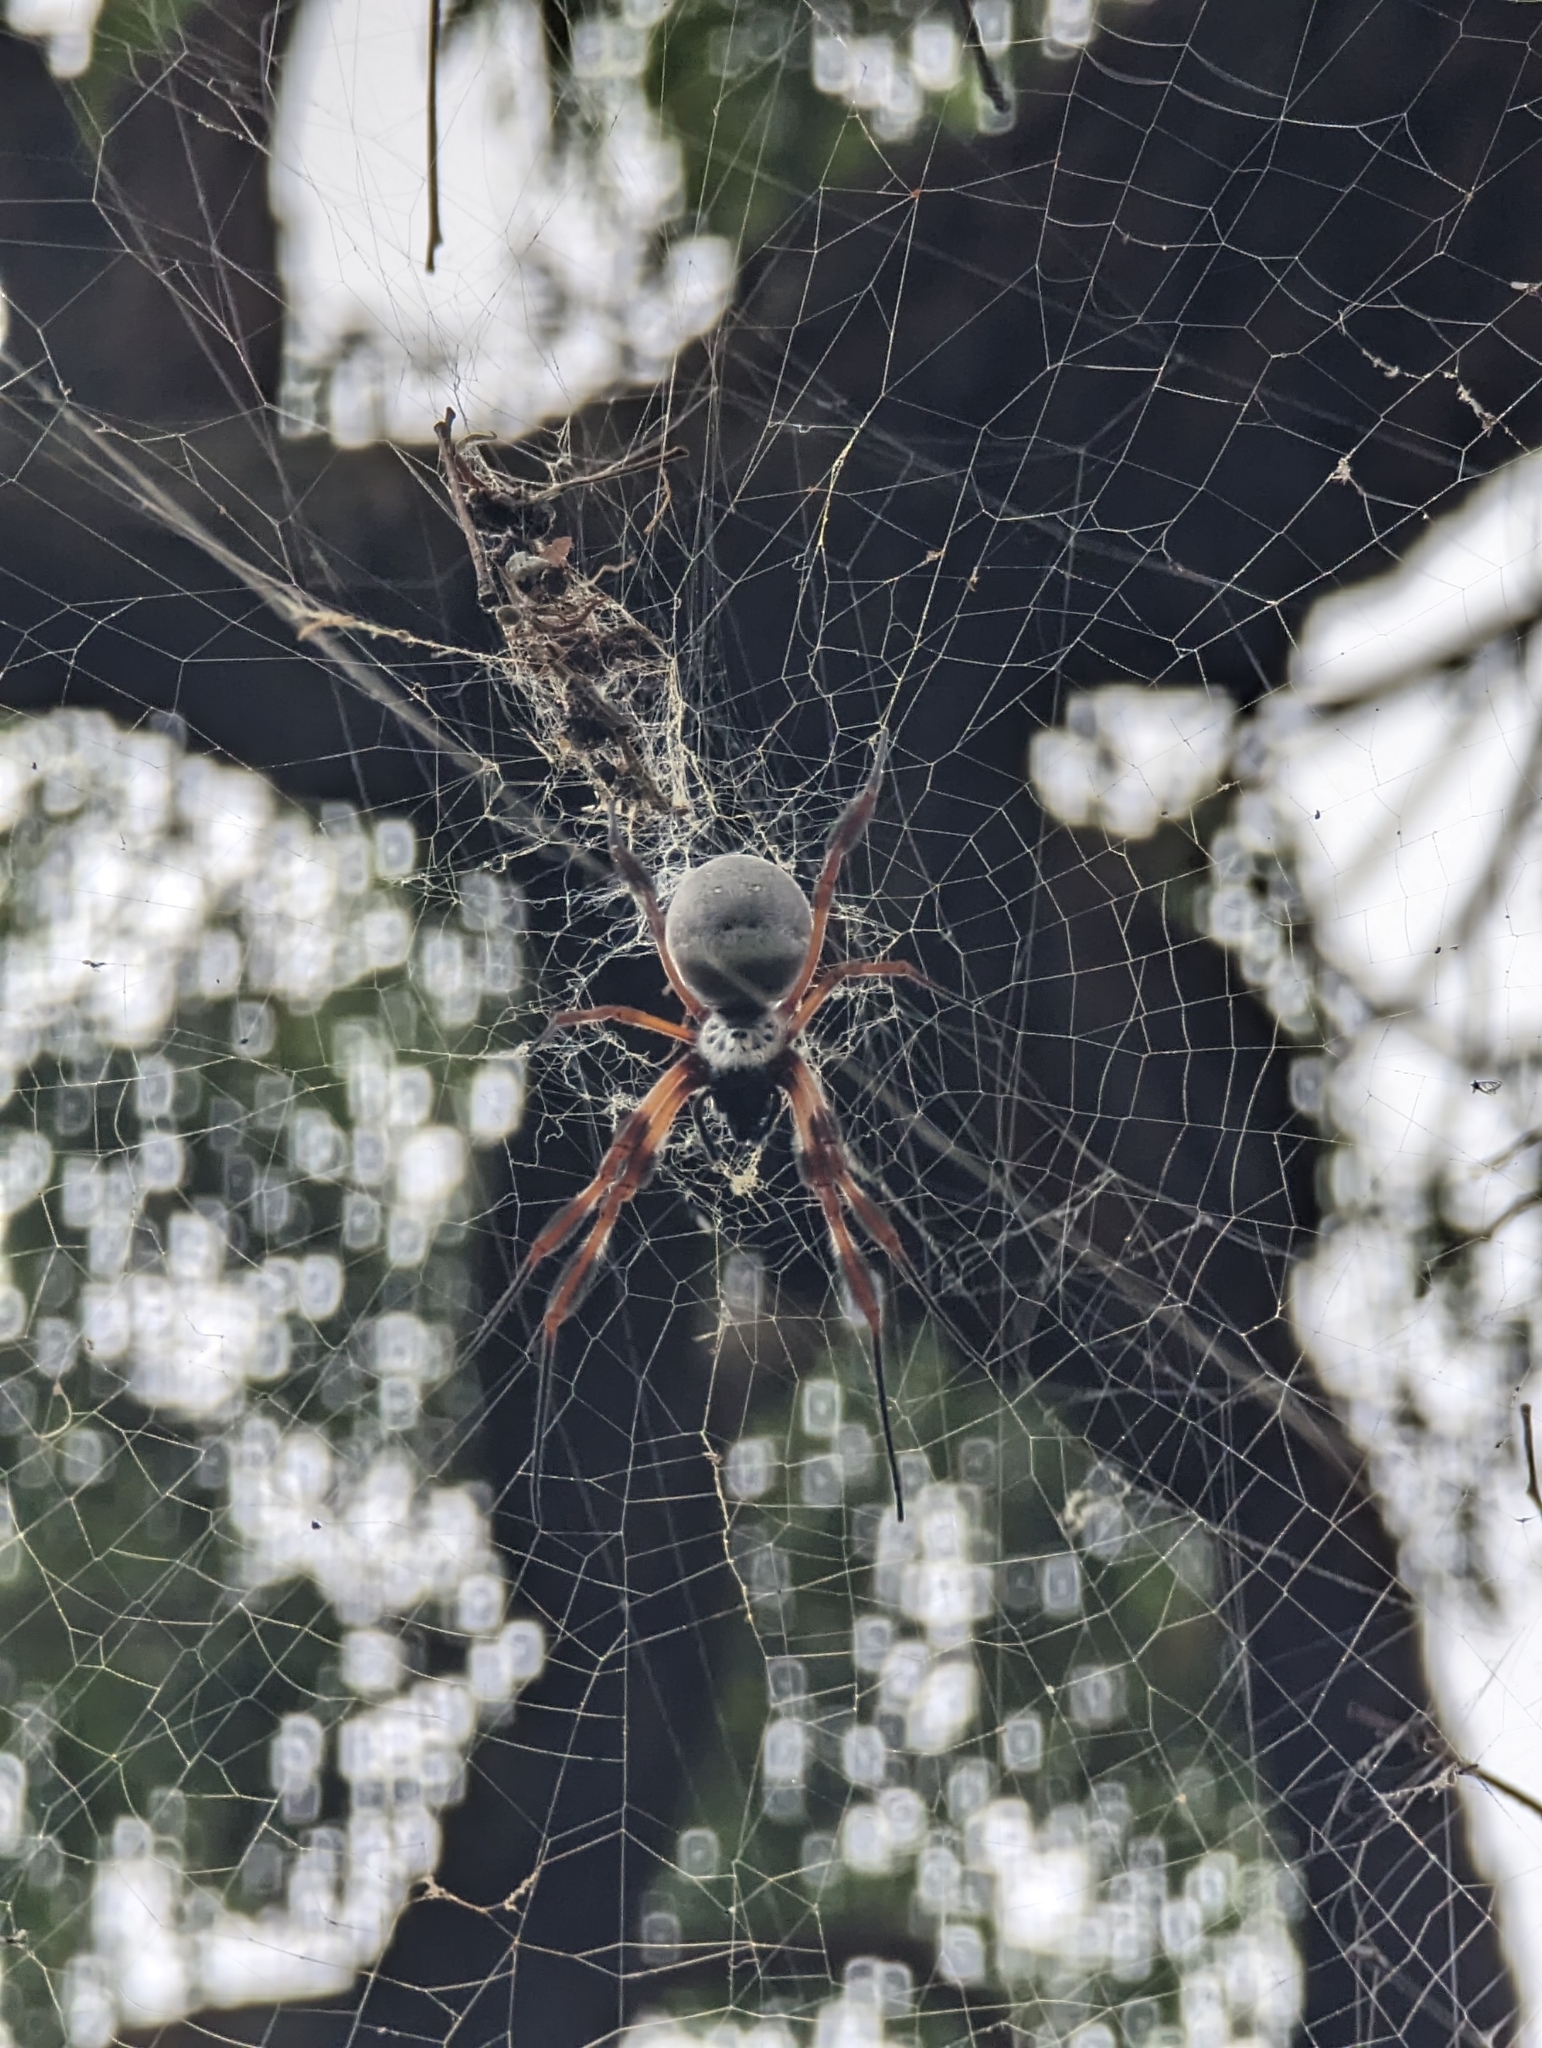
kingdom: Animalia
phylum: Arthropoda
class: Arachnida
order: Araneae
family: Araneidae
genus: Trichonephila
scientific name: Trichonephila edulis
